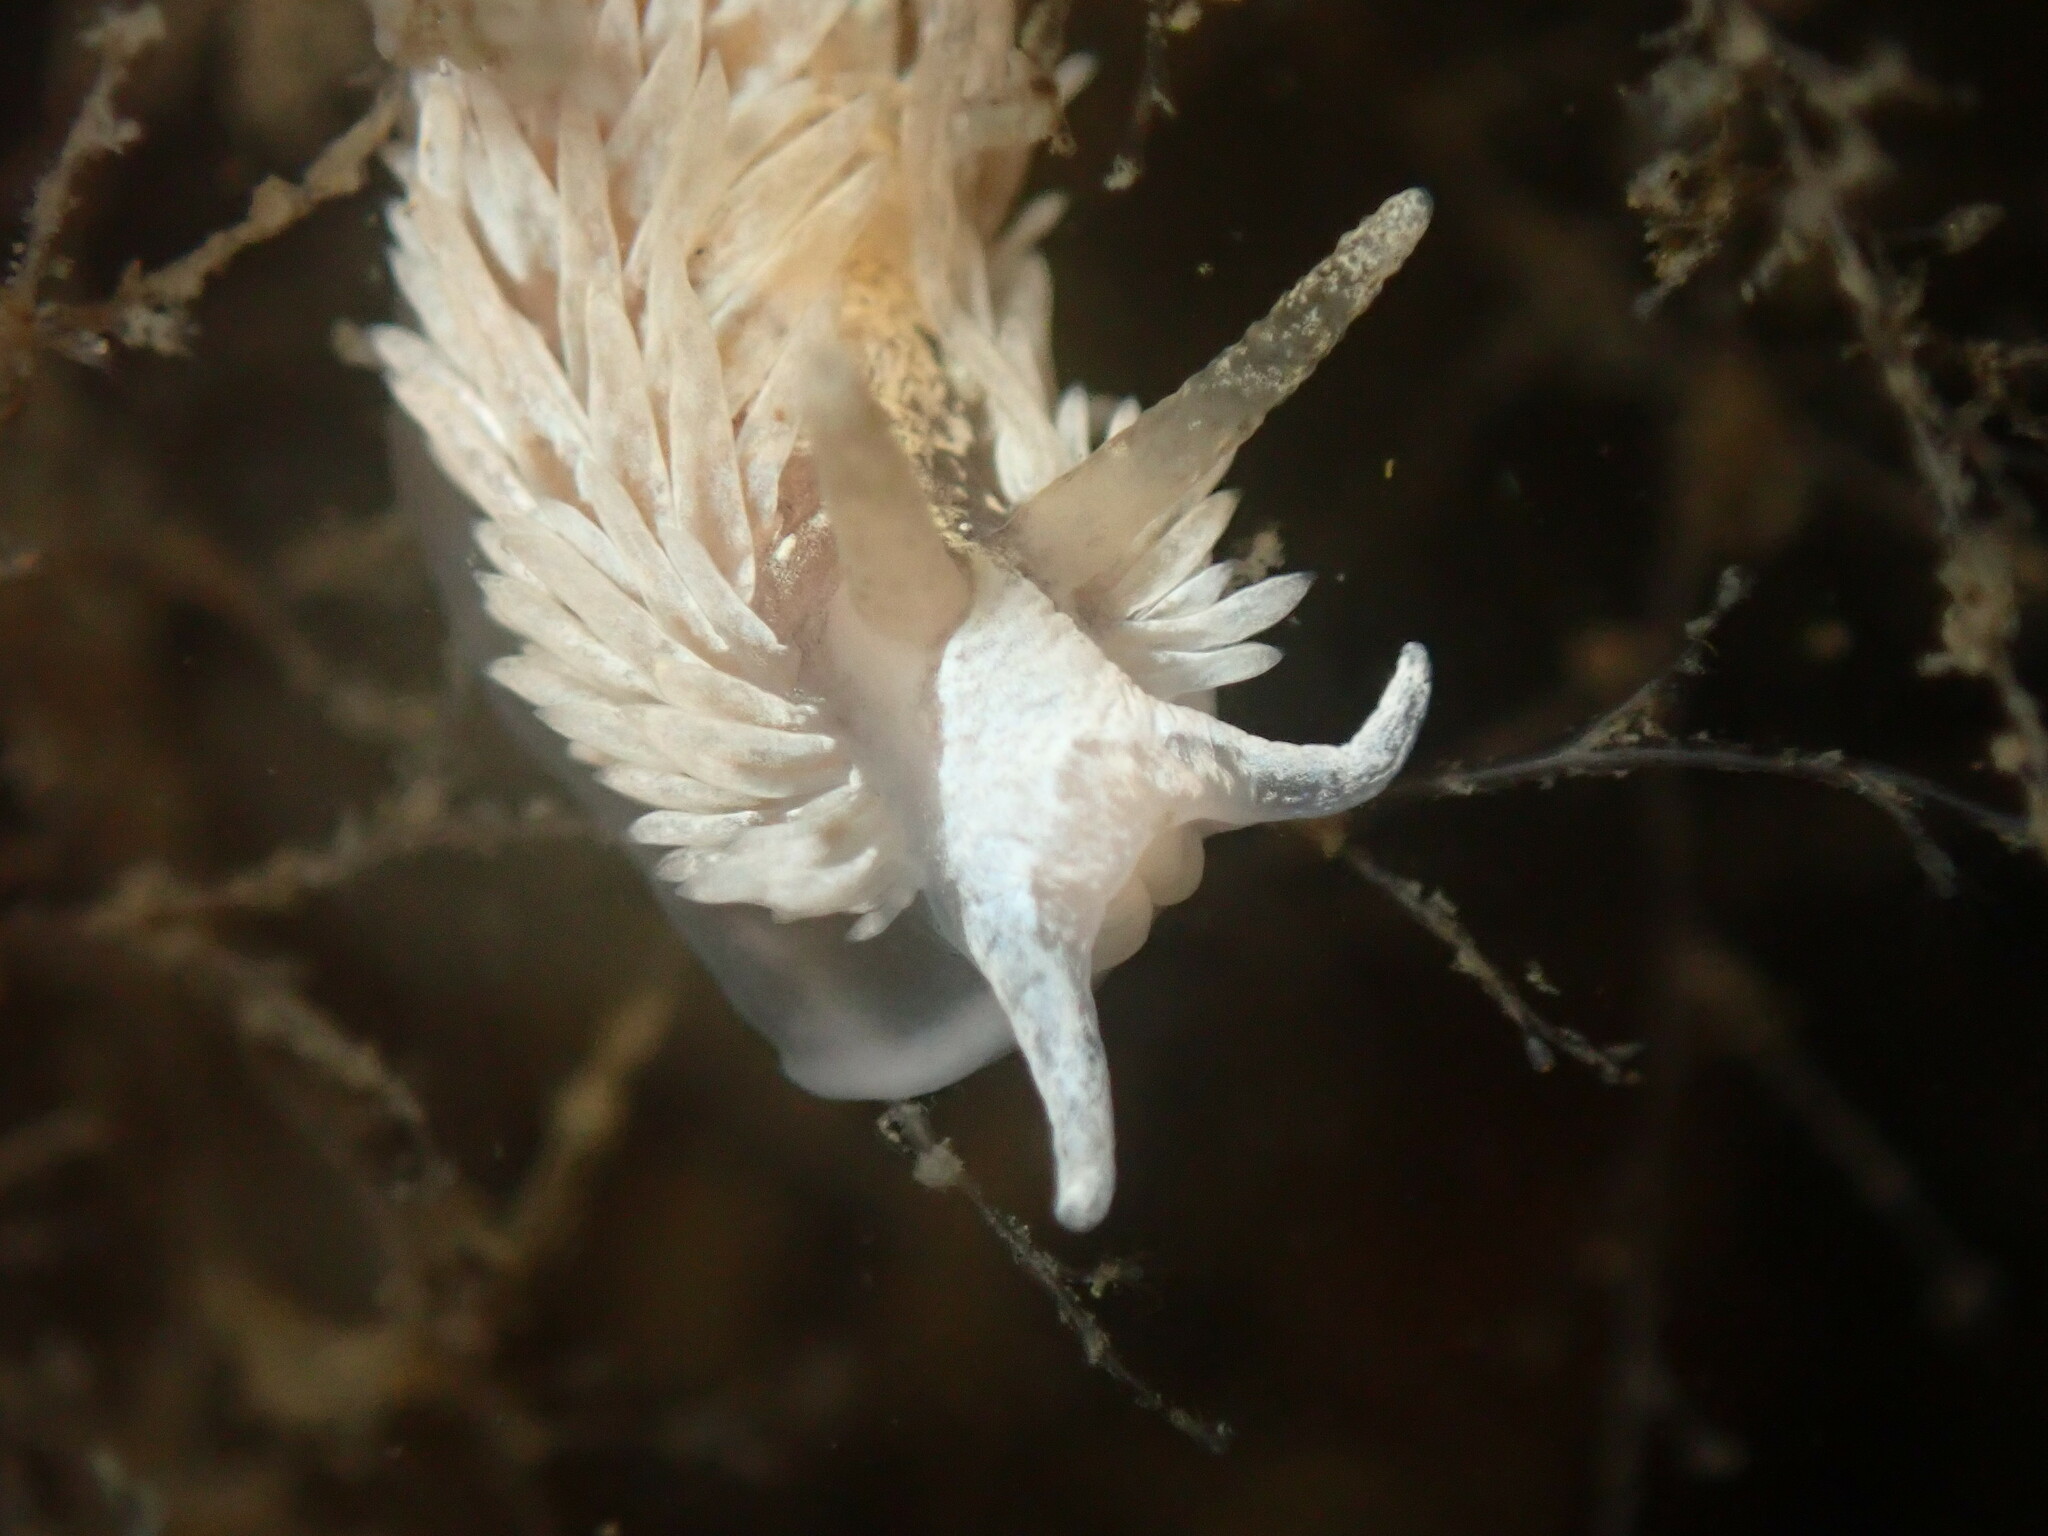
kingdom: Animalia
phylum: Mollusca
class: Gastropoda
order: Nudibranchia
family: Aeolidiidae
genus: Aeolidia
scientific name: Aeolidia loui
